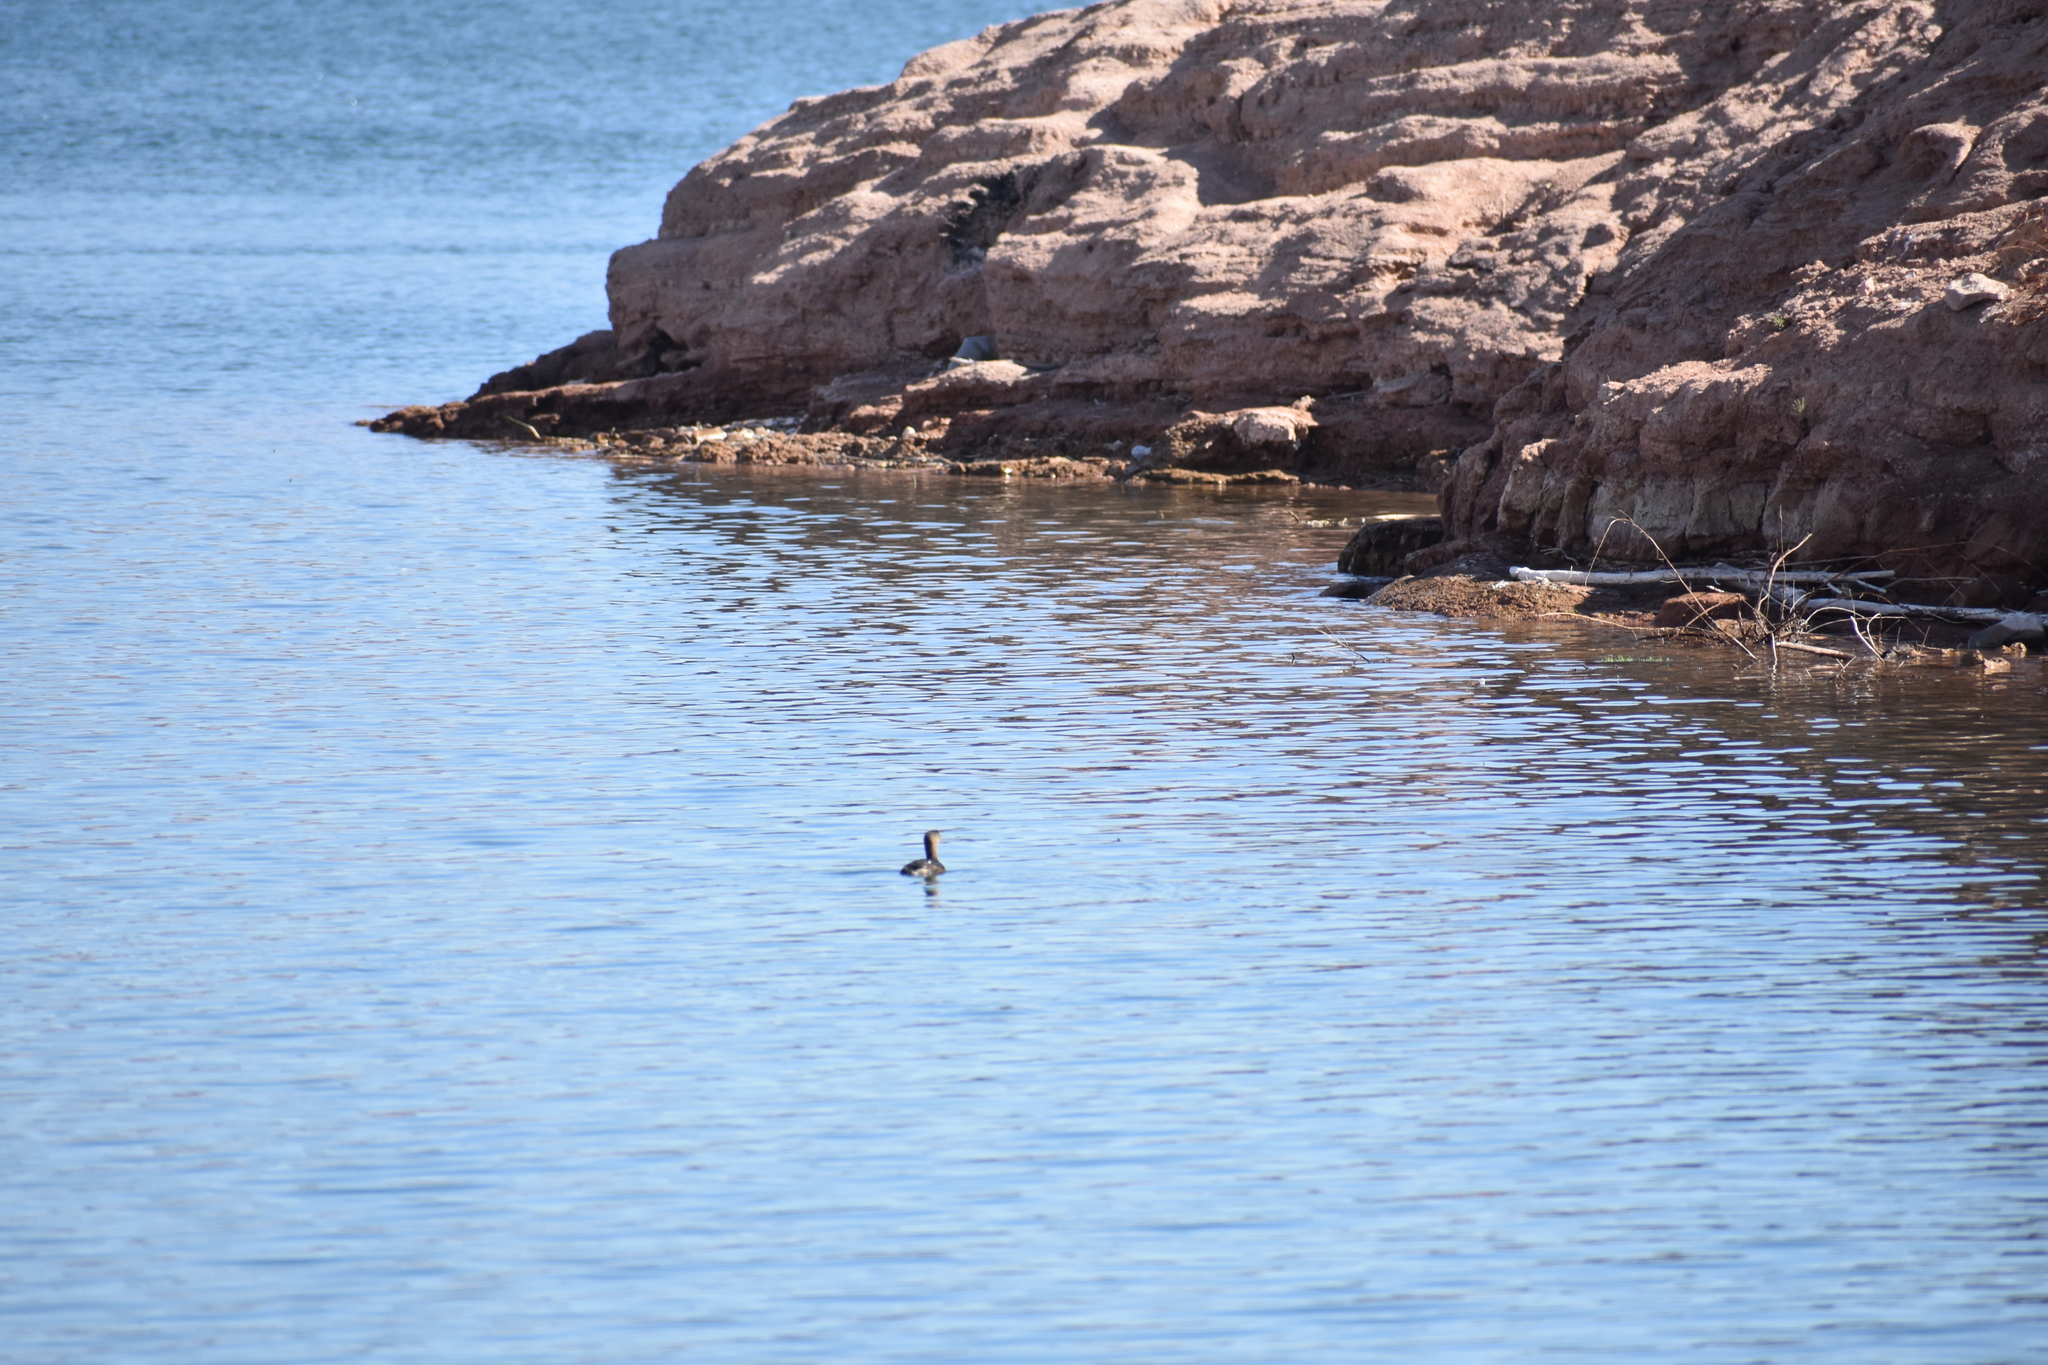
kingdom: Animalia
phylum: Chordata
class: Aves
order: Podicipediformes
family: Podicipedidae
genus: Podilymbus
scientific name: Podilymbus podiceps
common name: Pied-billed grebe
